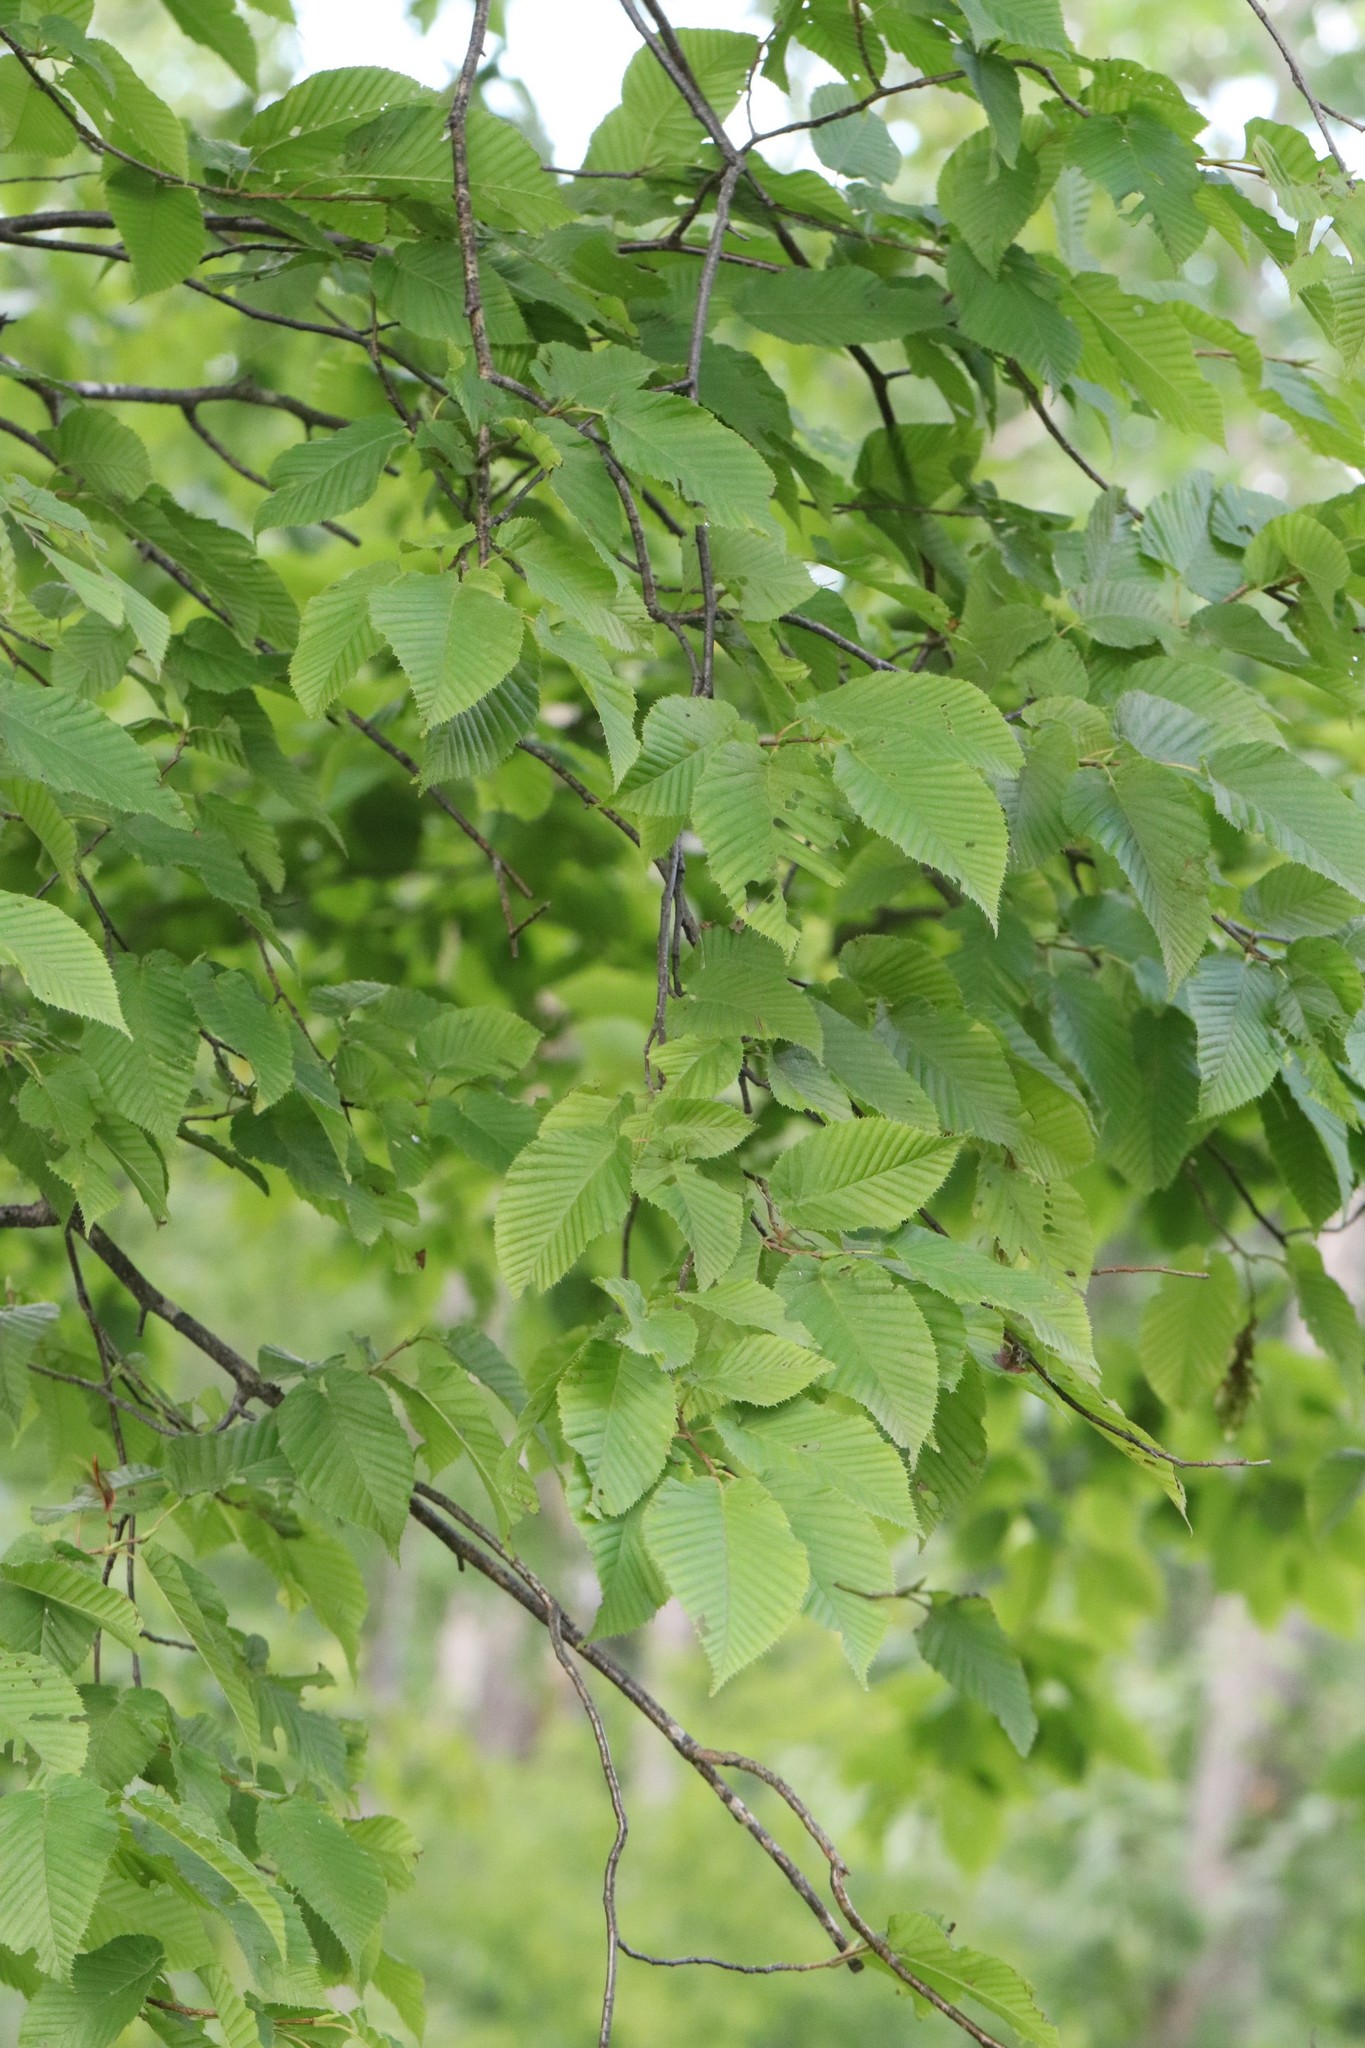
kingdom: Plantae
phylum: Tracheophyta
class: Magnoliopsida
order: Fagales
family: Betulaceae
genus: Carpinus
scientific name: Carpinus cordata
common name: Sawa hornbeam
